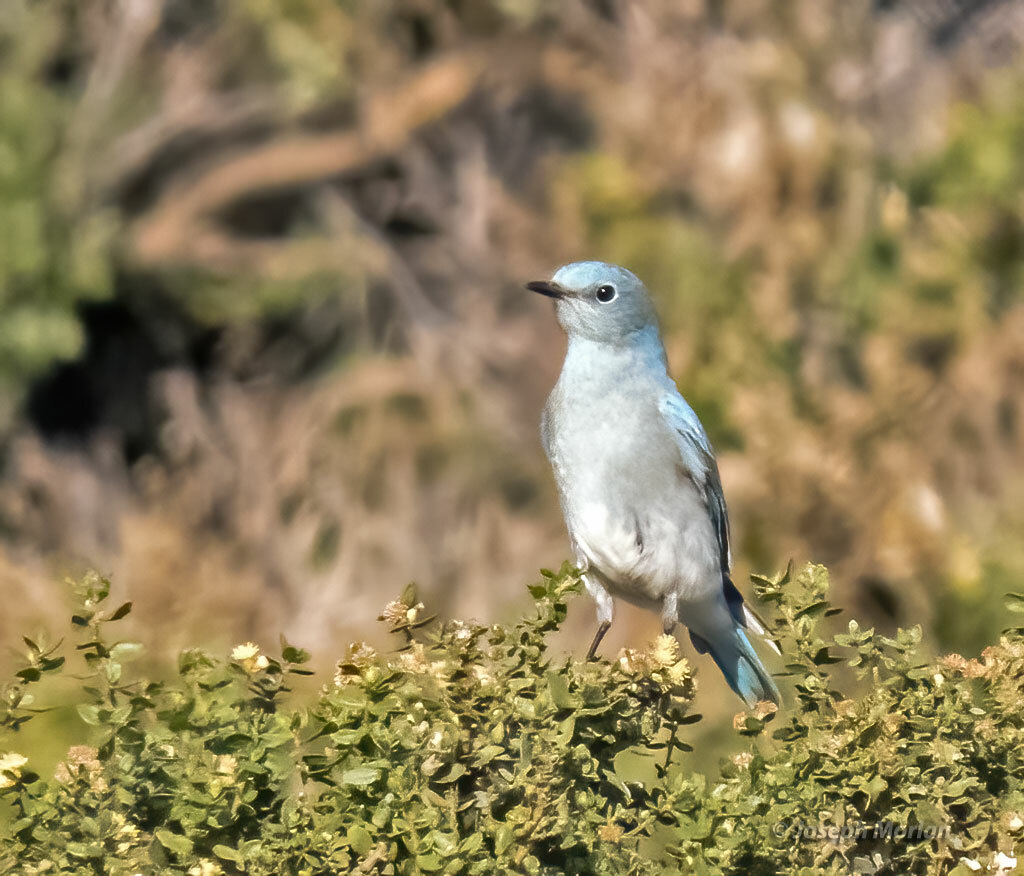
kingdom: Animalia
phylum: Chordata
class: Aves
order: Passeriformes
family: Turdidae
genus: Sialia
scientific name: Sialia currucoides
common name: Mountain bluebird
